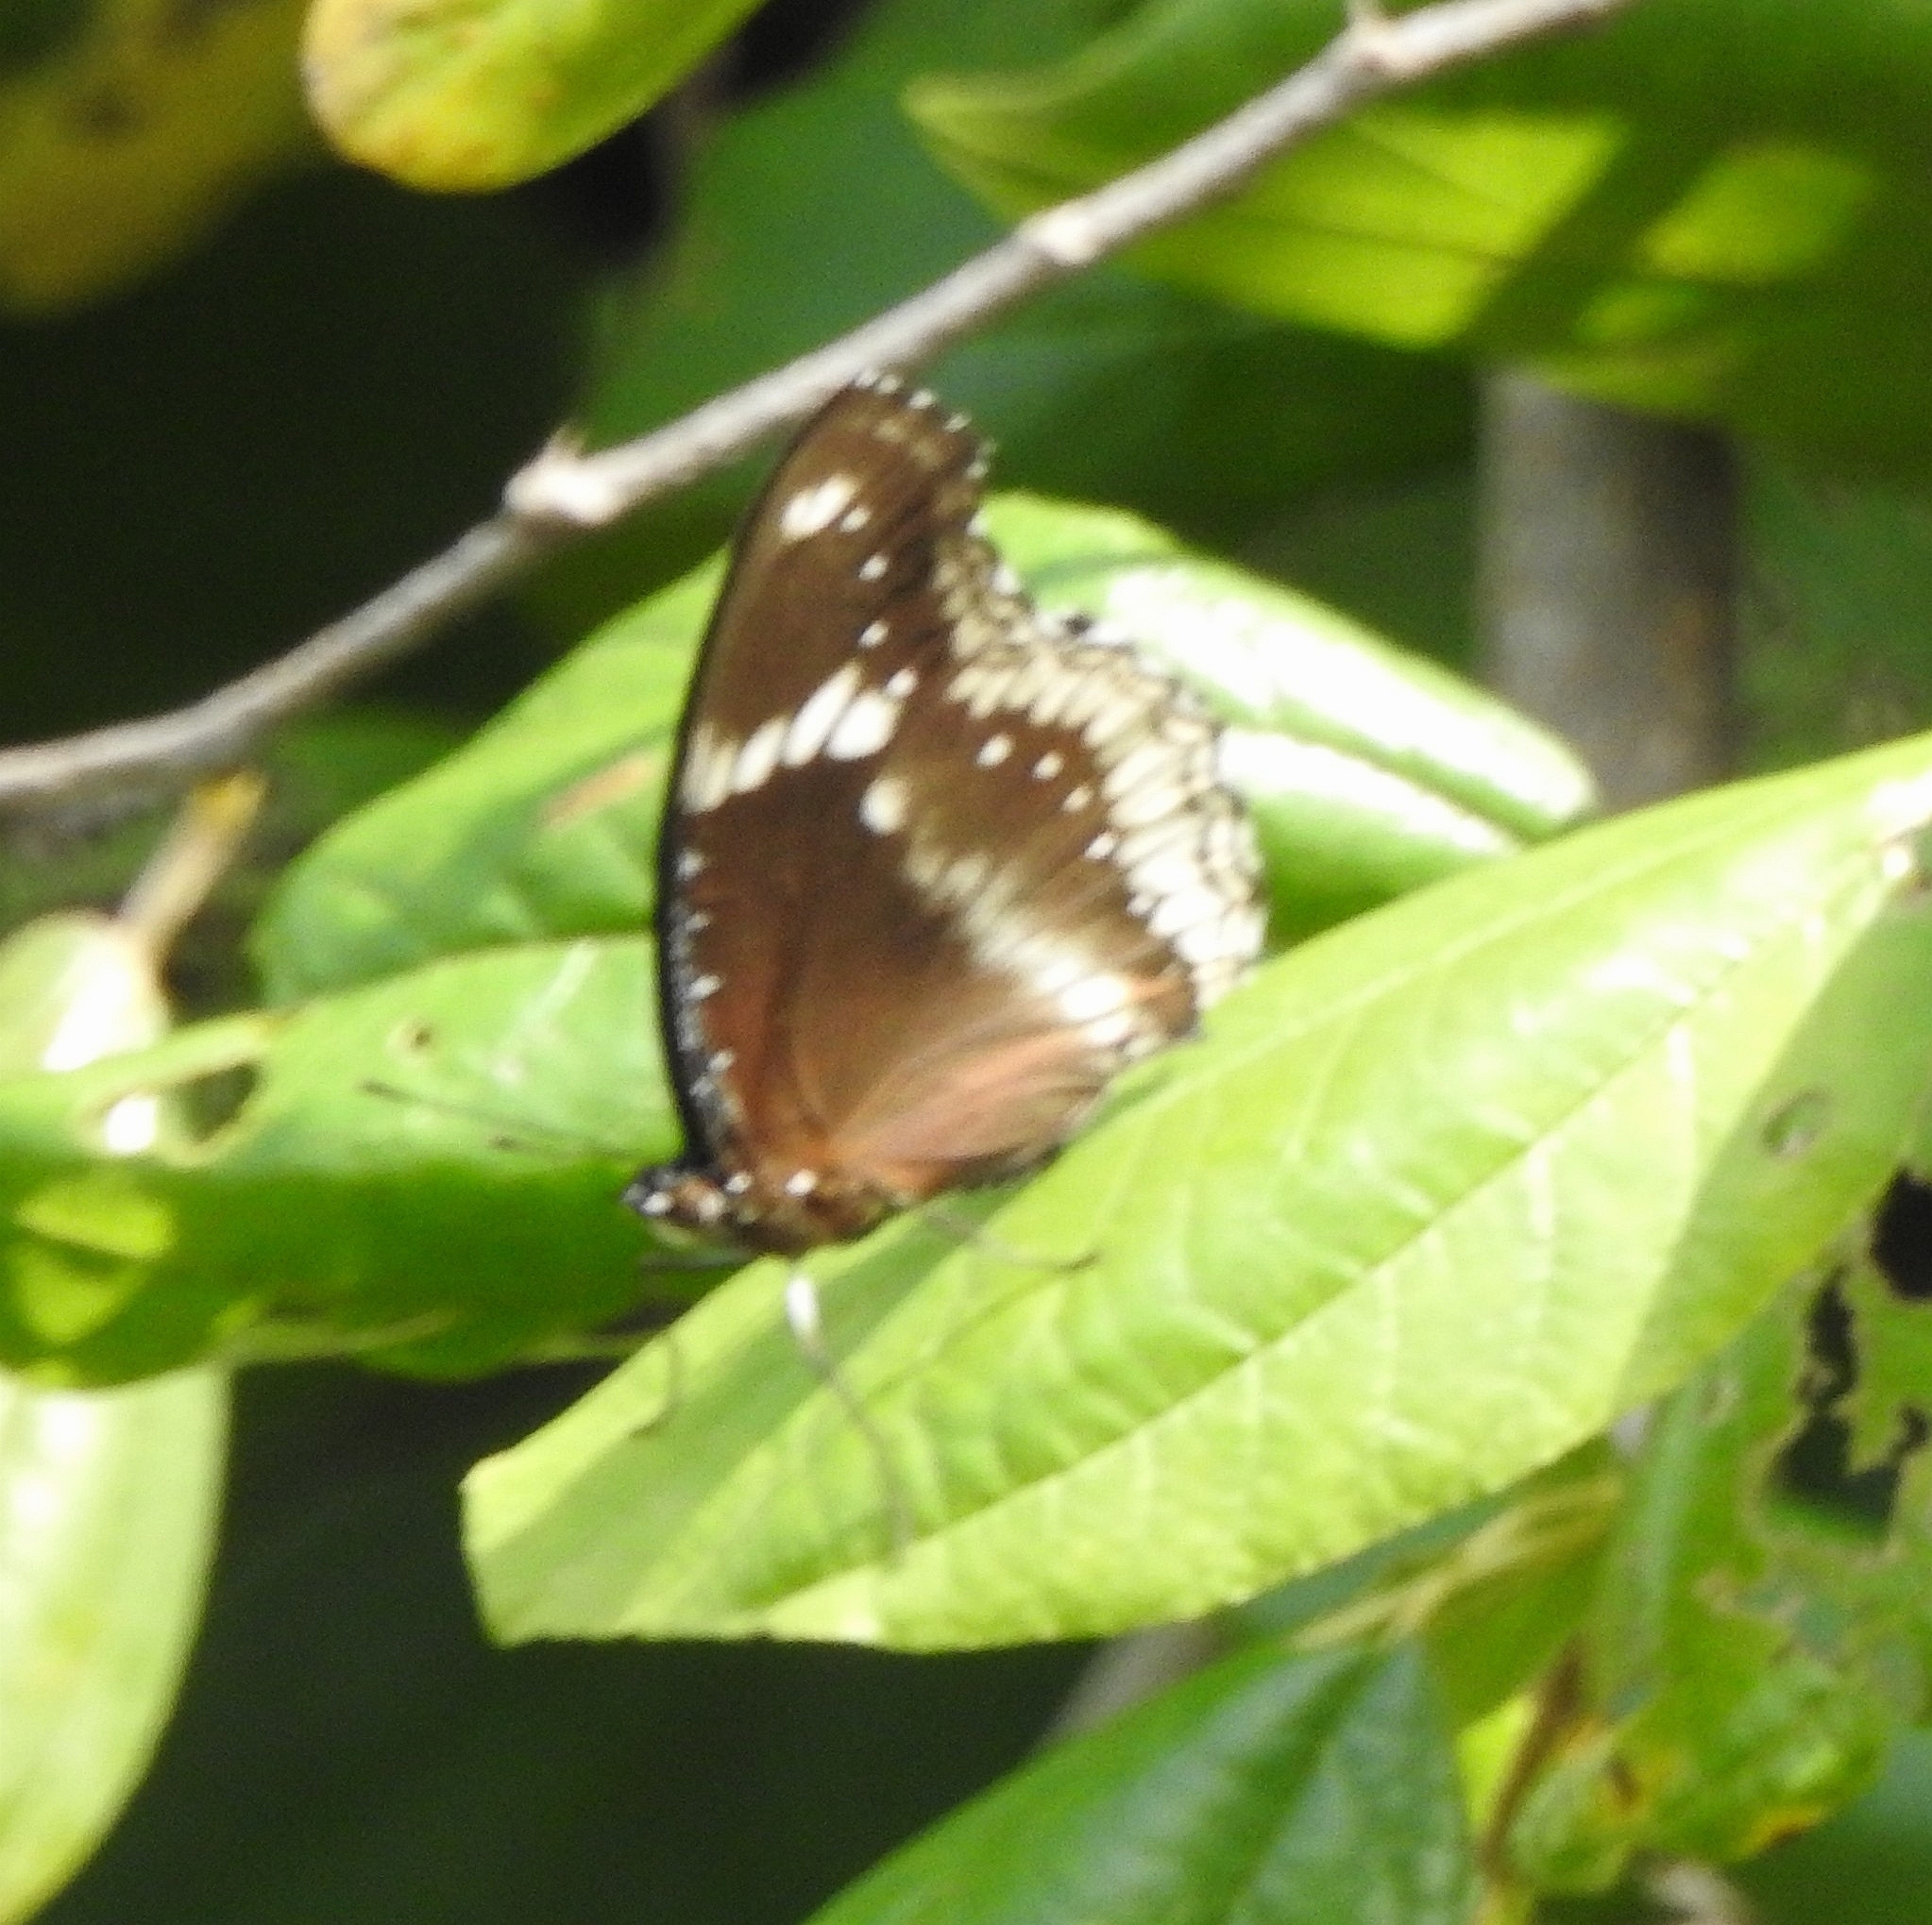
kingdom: Animalia
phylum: Arthropoda
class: Insecta
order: Lepidoptera
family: Nymphalidae
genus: Hypolimnas
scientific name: Hypolimnas bolina
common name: Great eggfly
